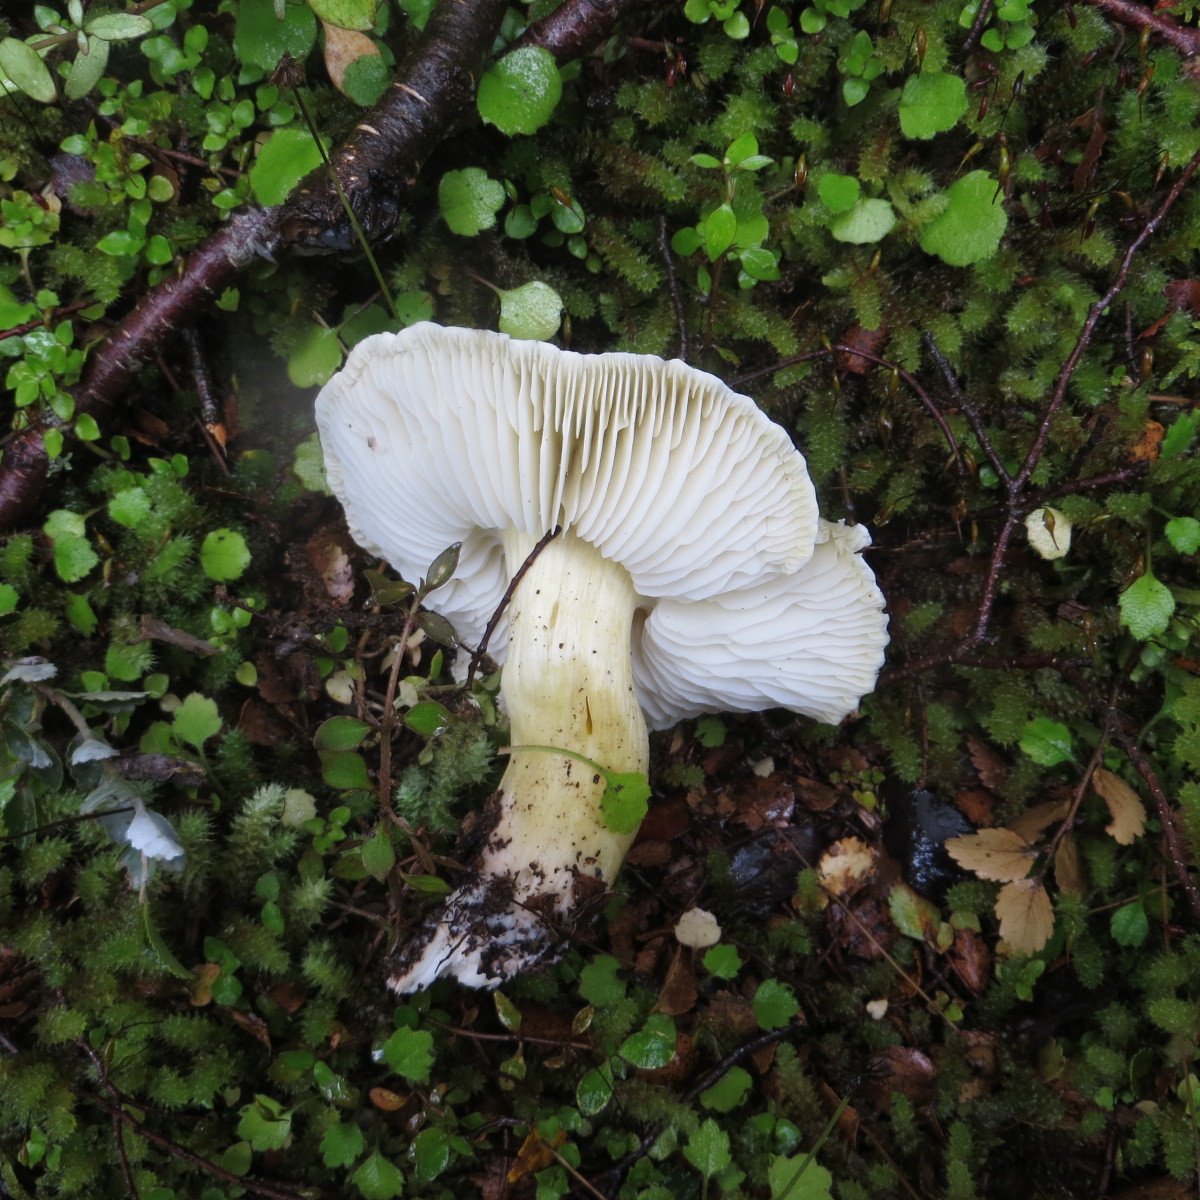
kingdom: Fungi
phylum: Basidiomycota
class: Agaricomycetes
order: Agaricales
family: Tricholomataceae
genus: Tricholoma
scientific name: Tricholoma viridiolivaceum
